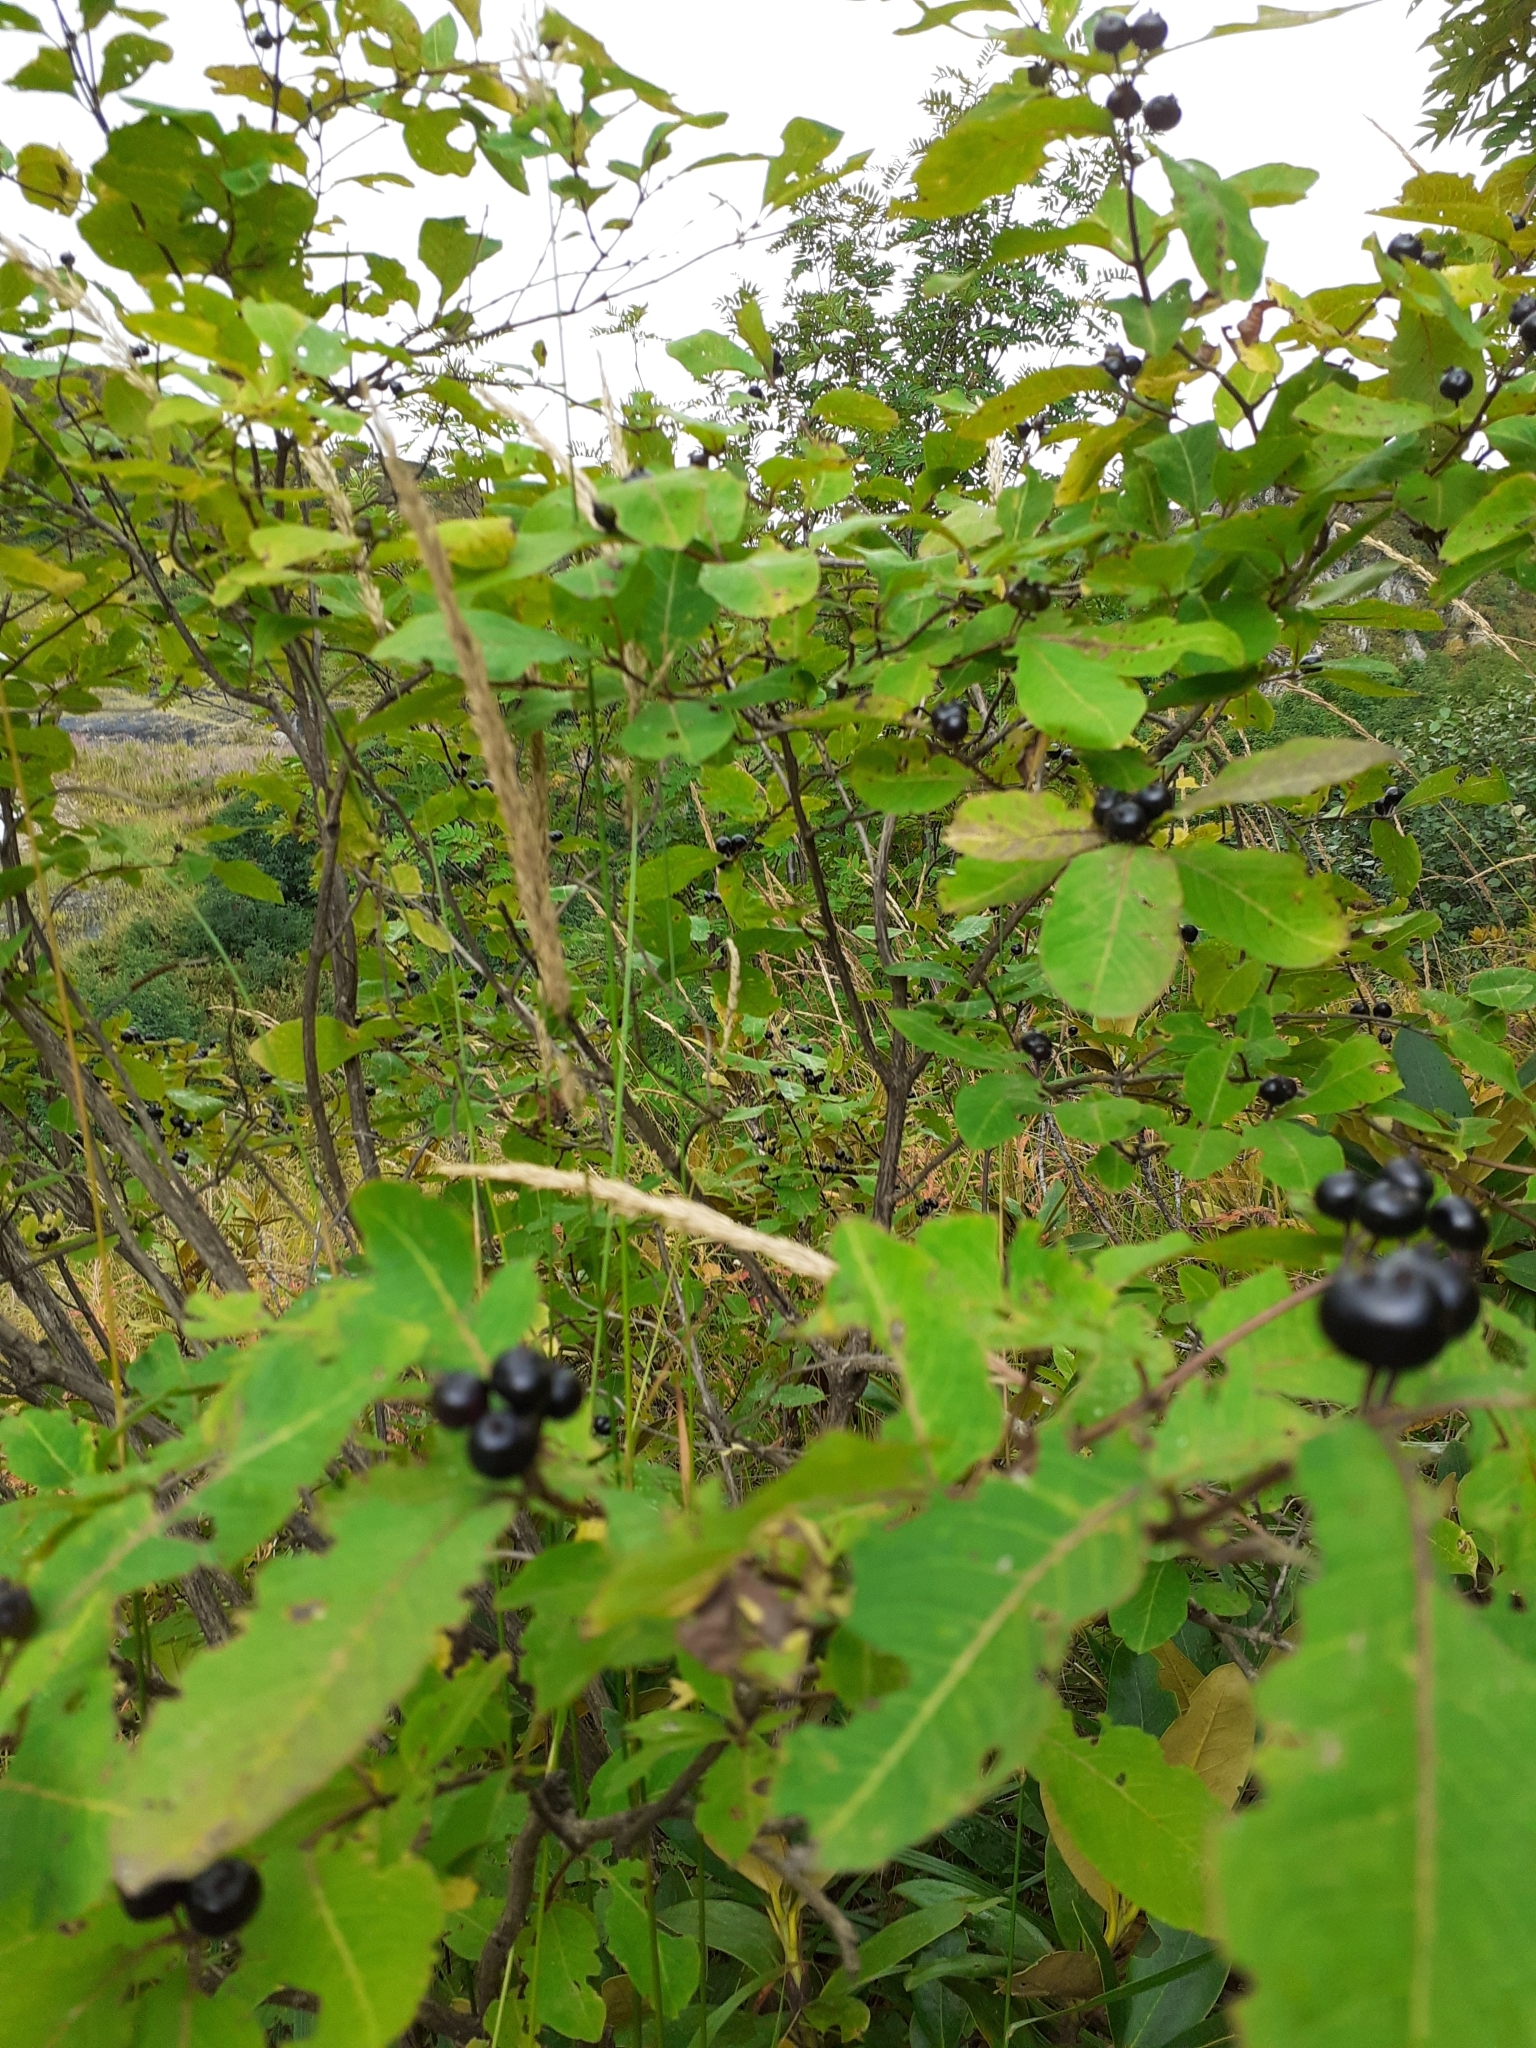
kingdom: Plantae
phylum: Tracheophyta
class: Magnoliopsida
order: Dipsacales
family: Caprifoliaceae
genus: Lonicera
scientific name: Lonicera caucasica
